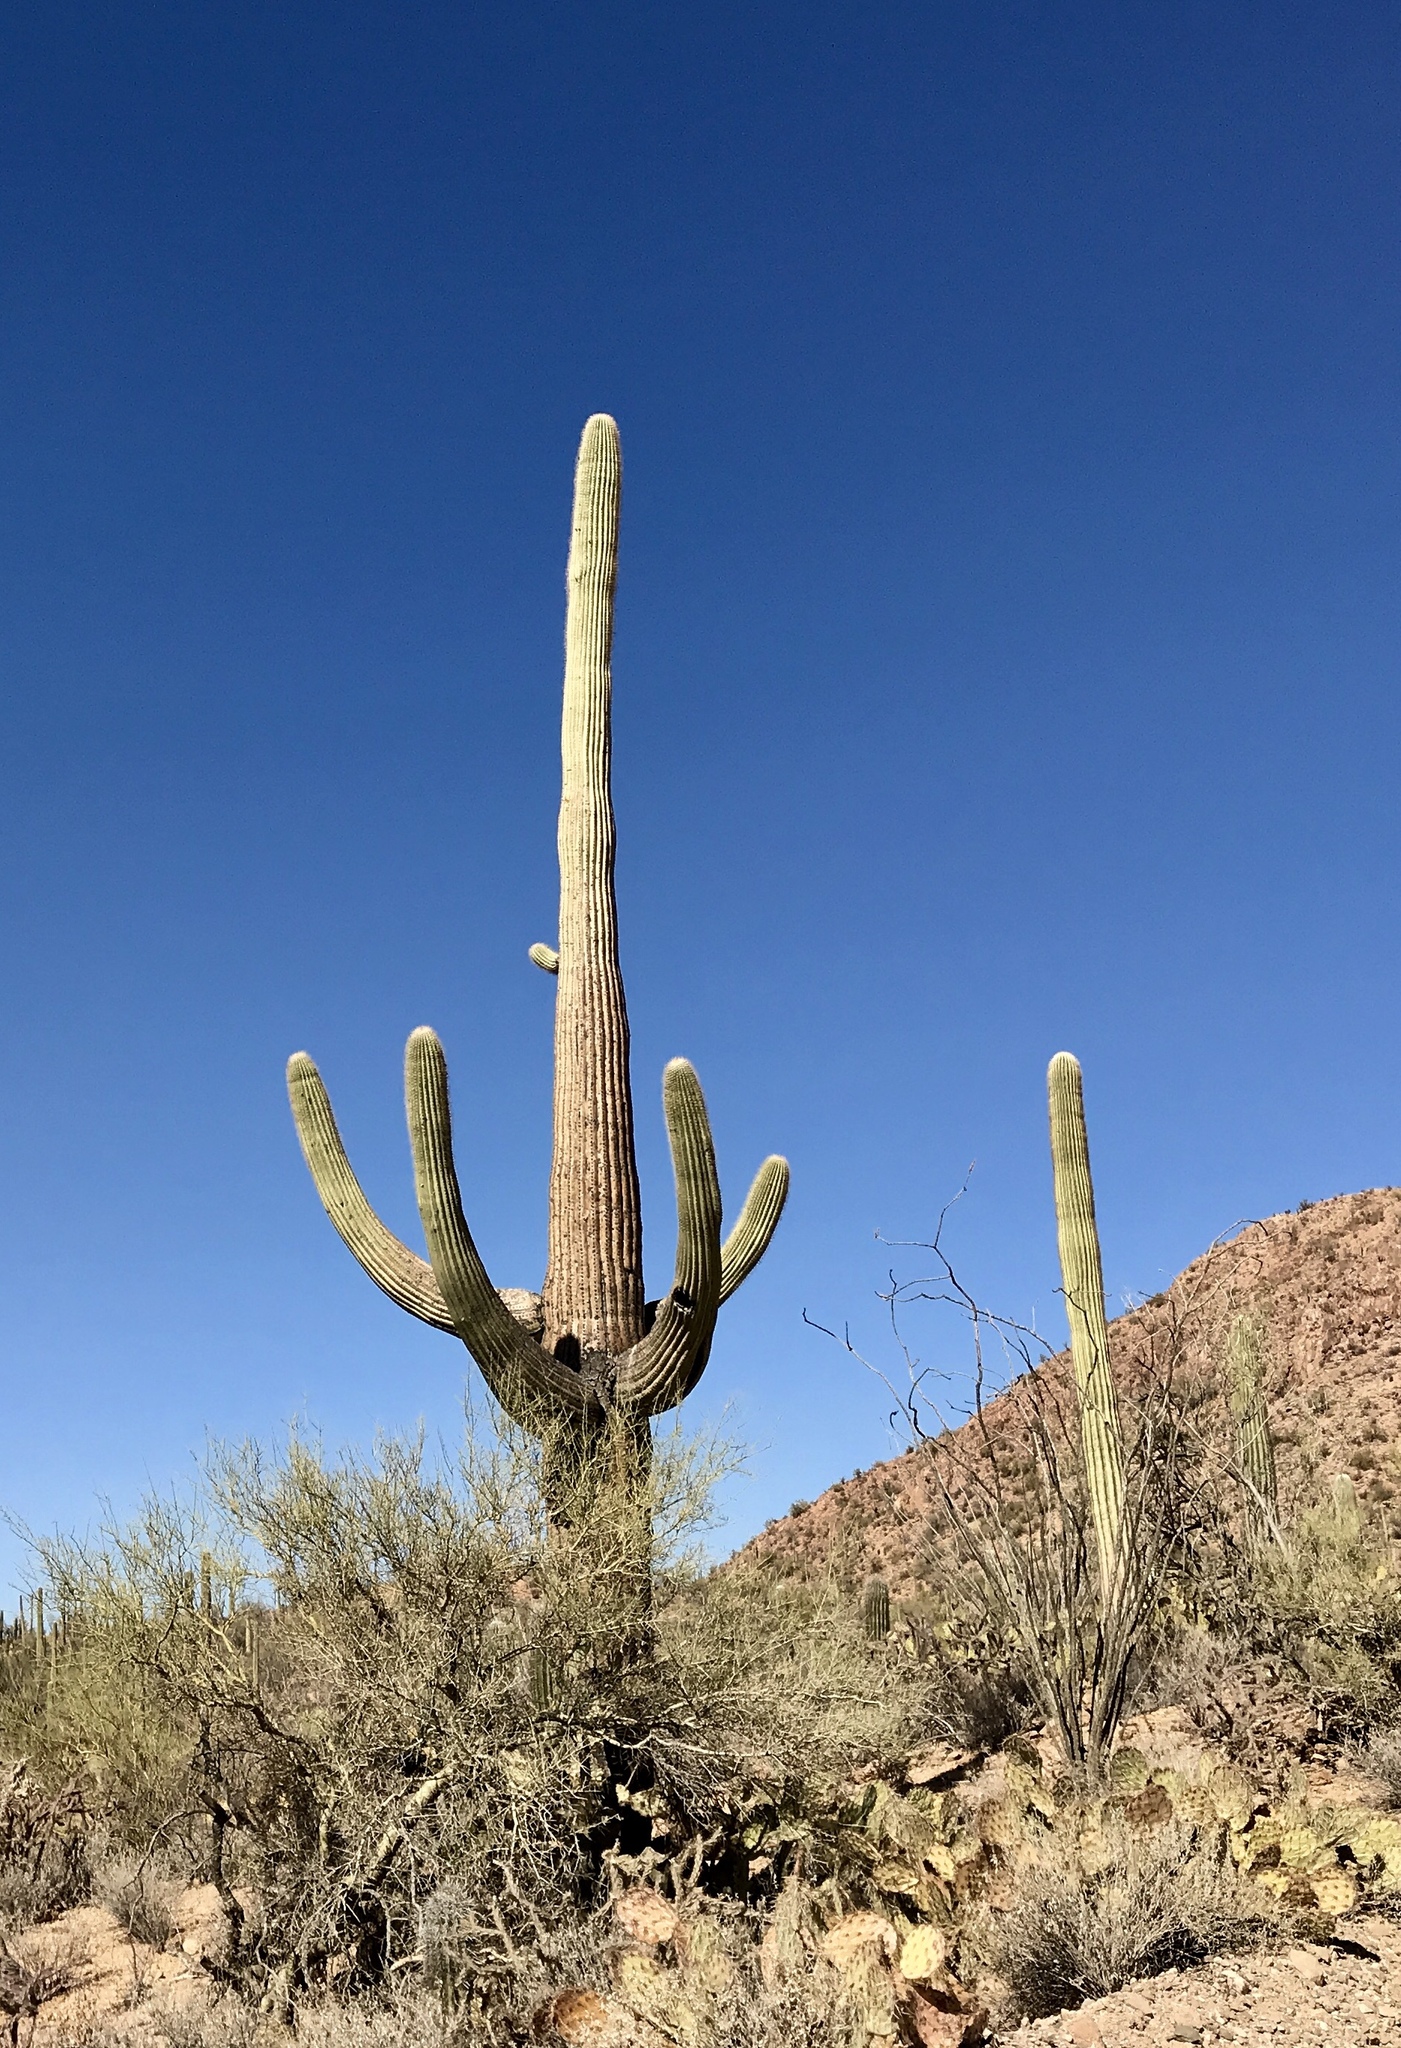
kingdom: Plantae
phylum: Tracheophyta
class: Magnoliopsida
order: Caryophyllales
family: Cactaceae
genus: Carnegiea
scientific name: Carnegiea gigantea
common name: Saguaro
